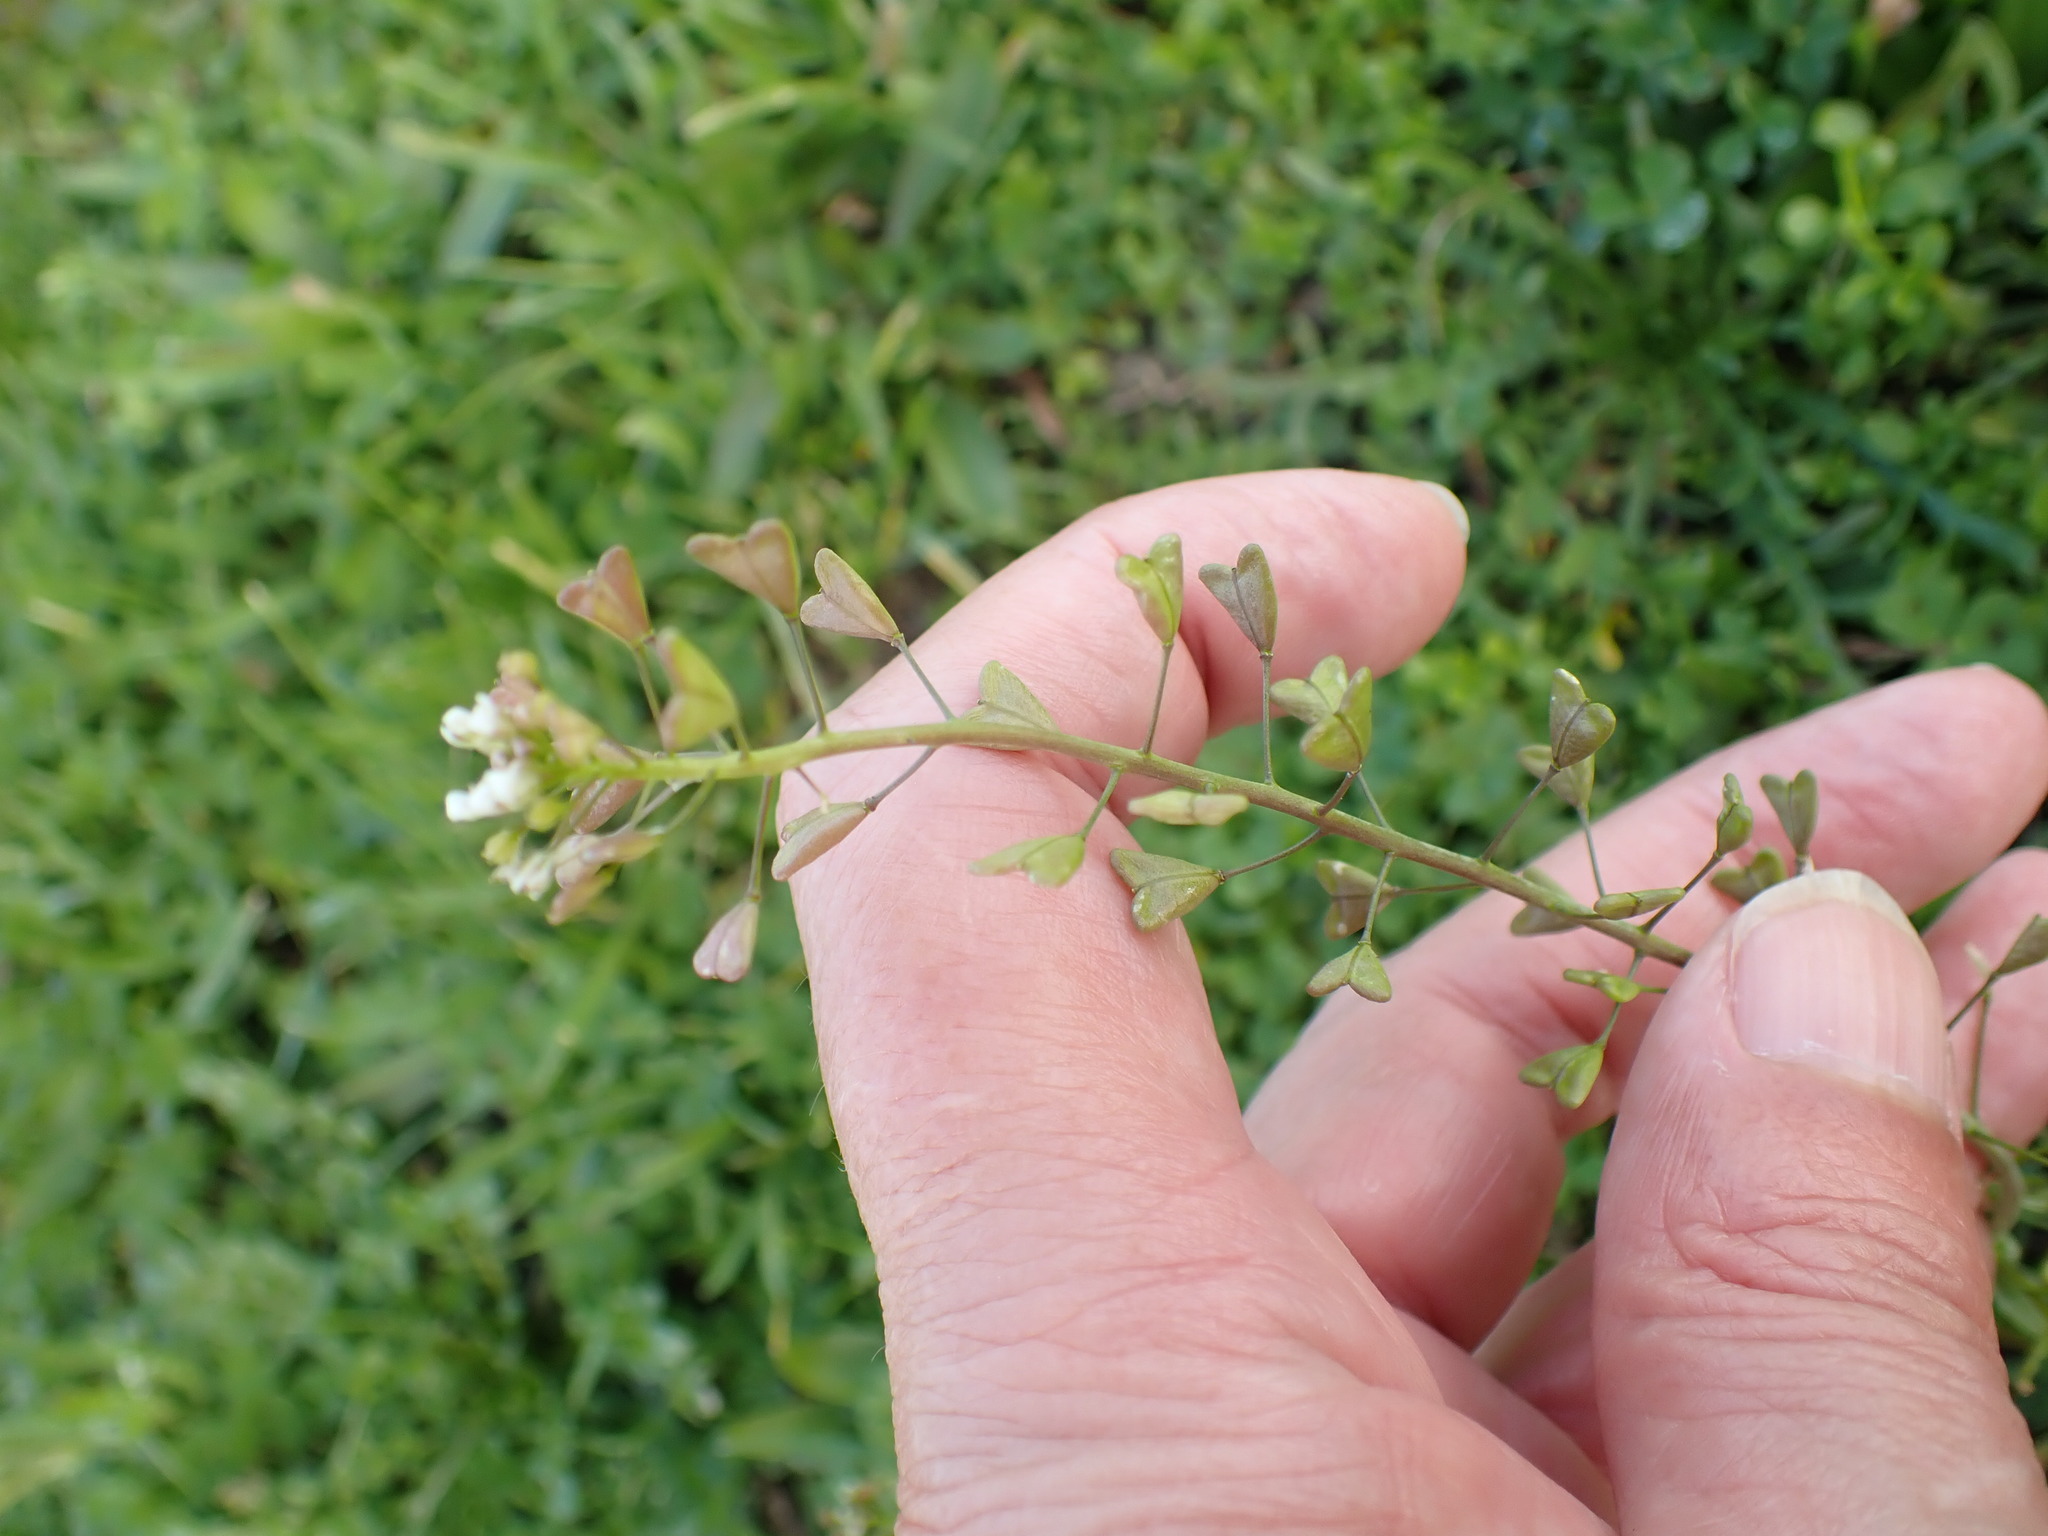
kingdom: Plantae
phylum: Tracheophyta
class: Magnoliopsida
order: Brassicales
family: Brassicaceae
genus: Capsella
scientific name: Capsella bursa-pastoris
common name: Shepherd's purse
